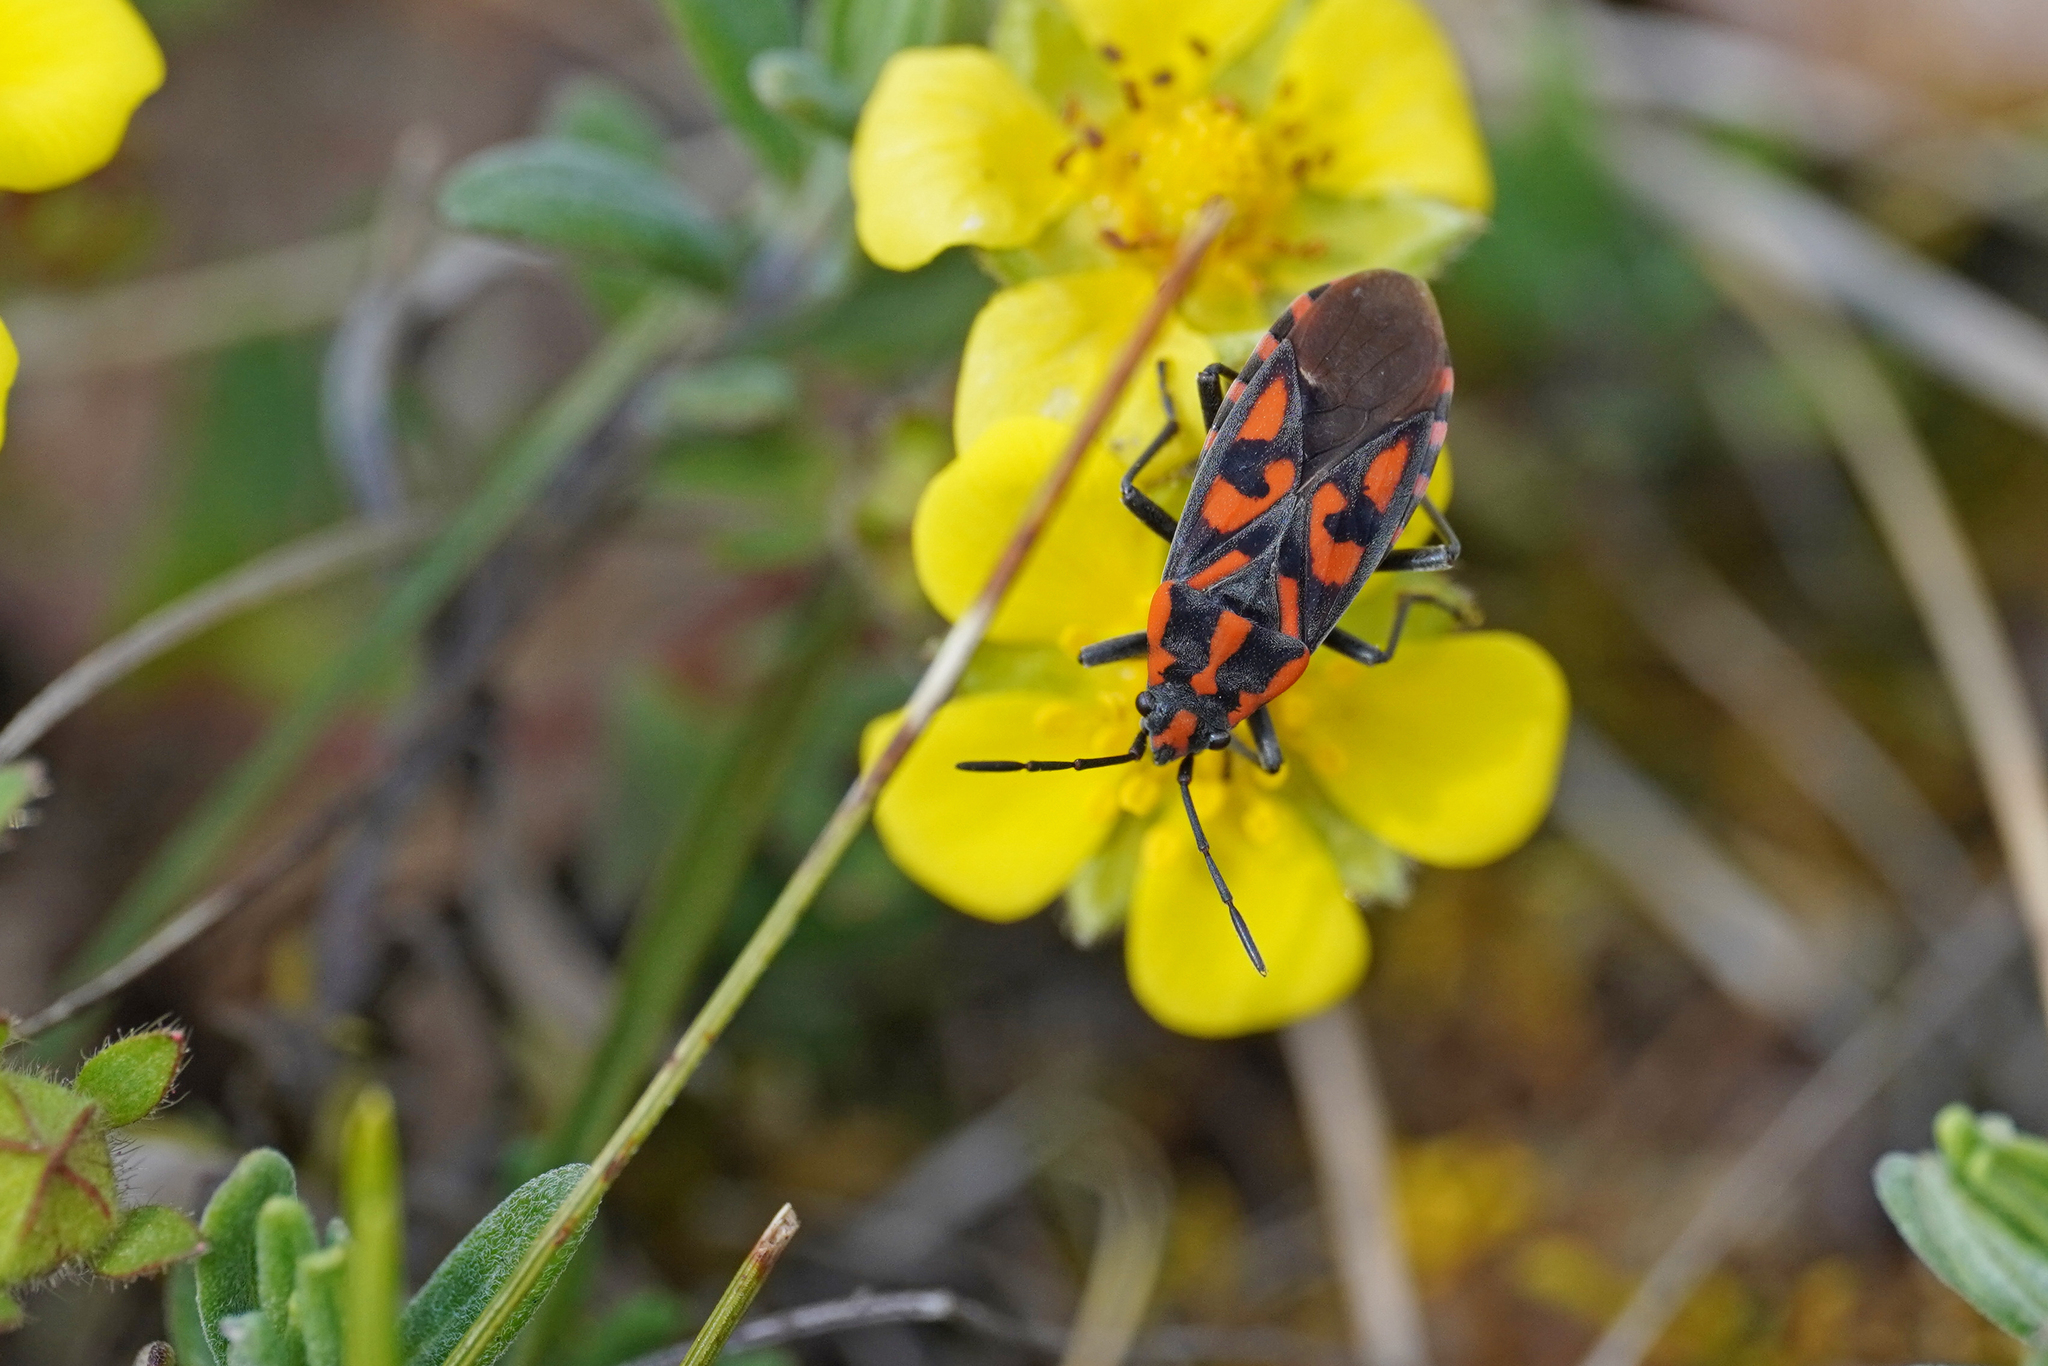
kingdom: Animalia
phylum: Arthropoda
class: Insecta
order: Hemiptera
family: Lygaeidae
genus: Spilostethus
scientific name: Spilostethus saxatilis
